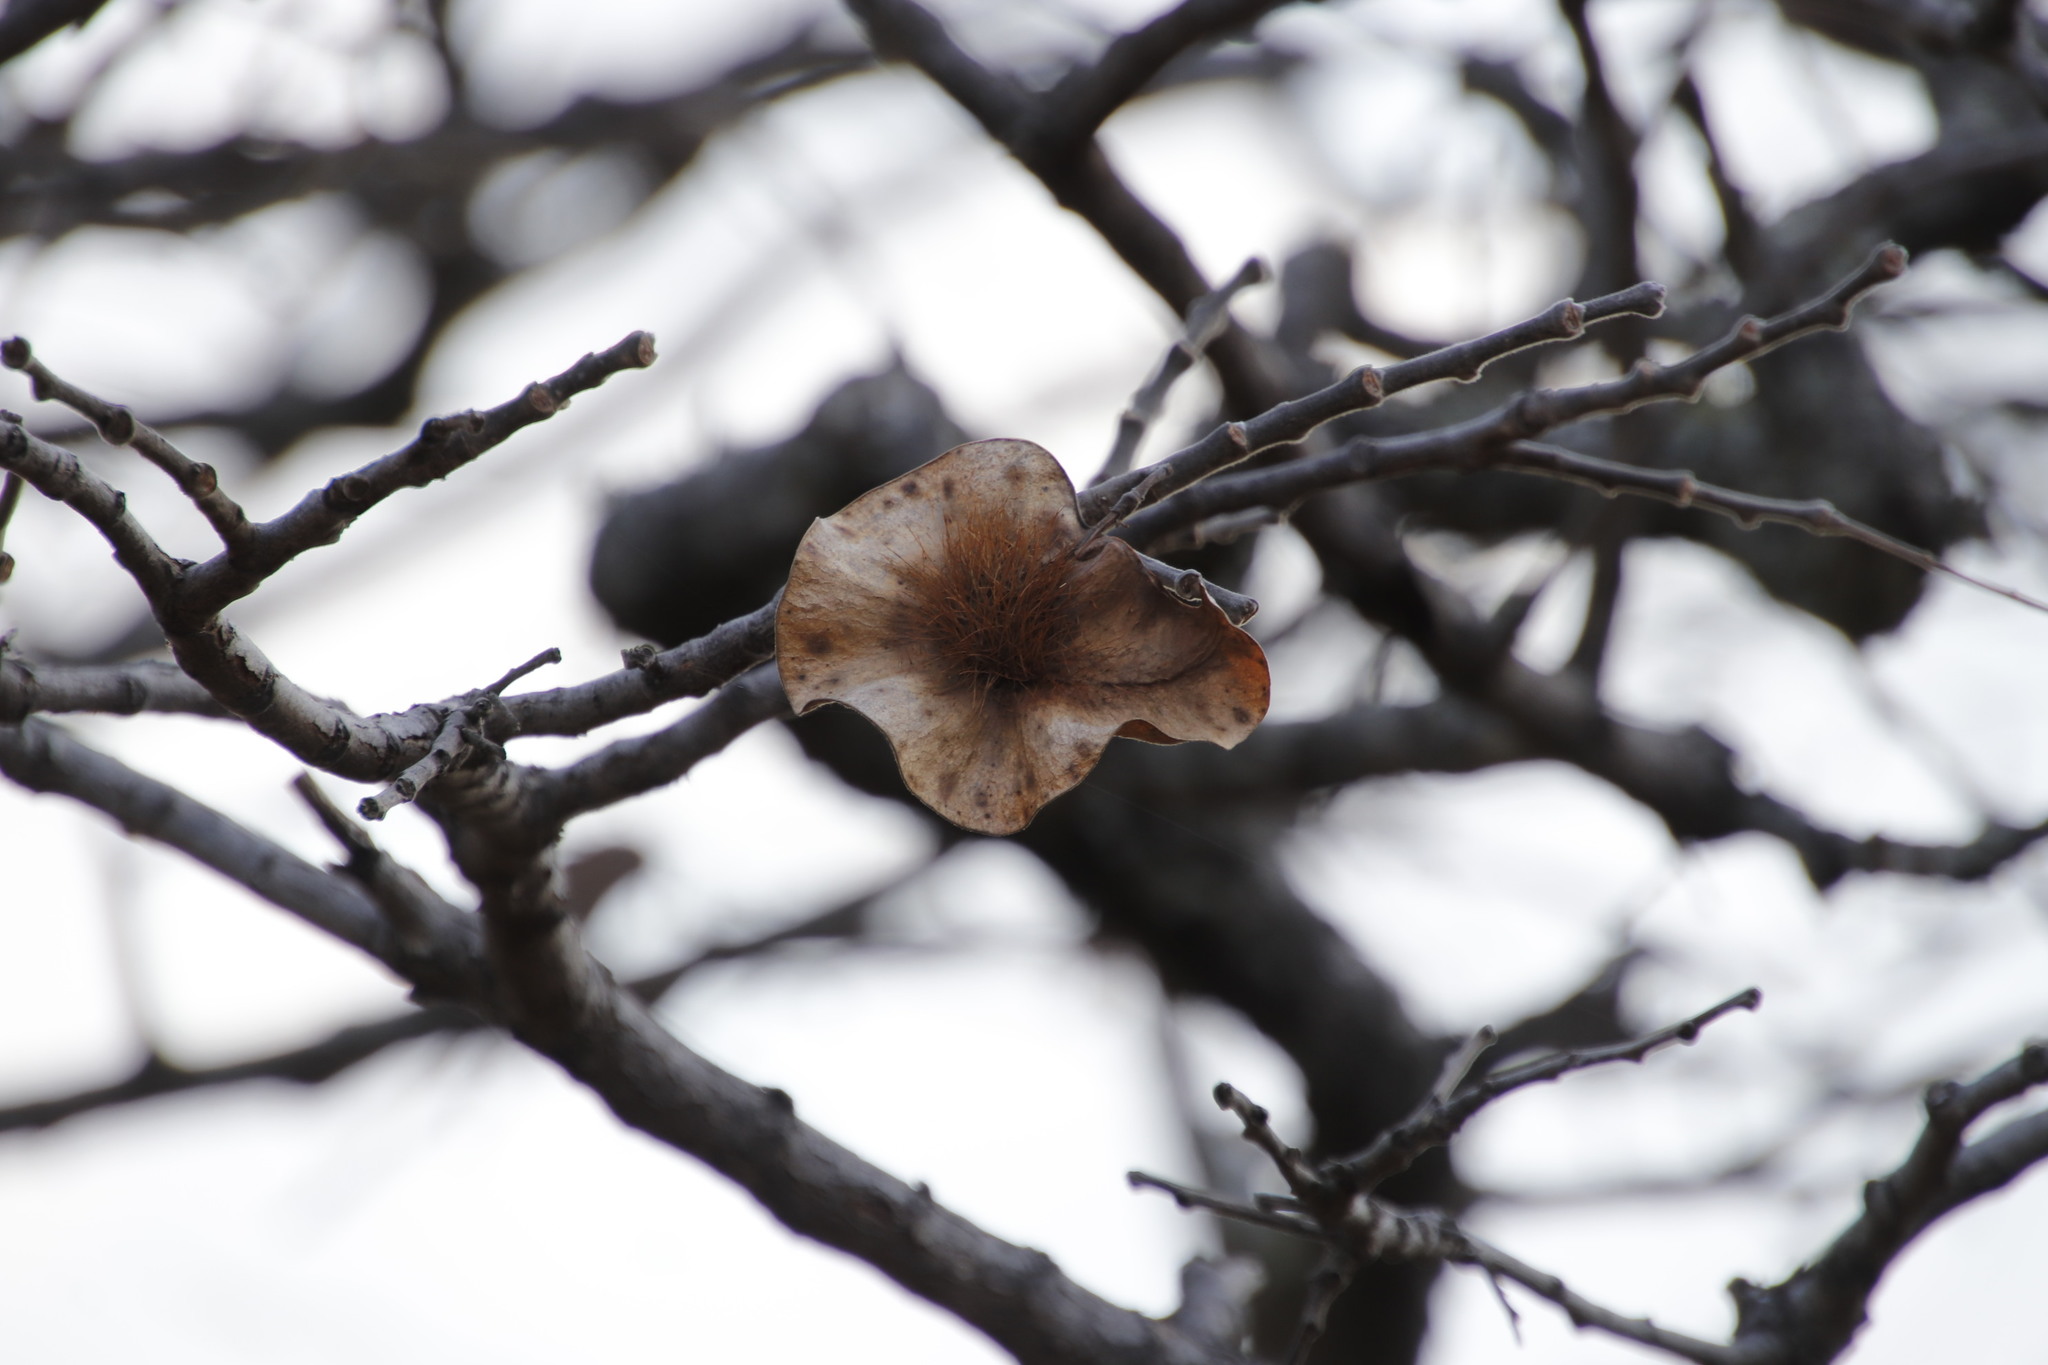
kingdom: Plantae
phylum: Tracheophyta
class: Magnoliopsida
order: Fabales
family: Fabaceae
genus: Pterocarpus
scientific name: Pterocarpus angolensis
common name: Bloodwood tree
